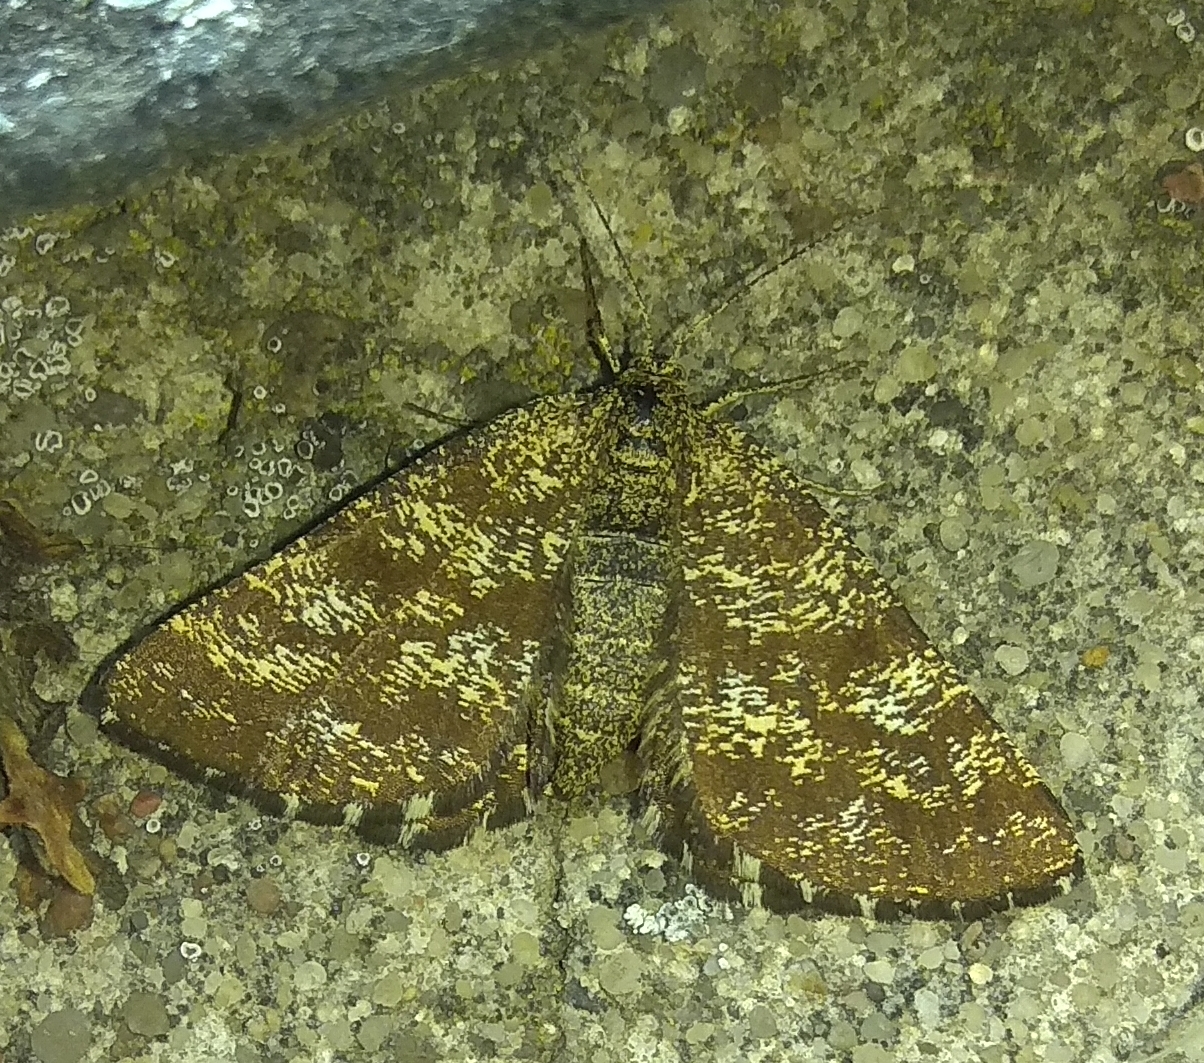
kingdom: Animalia
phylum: Arthropoda
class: Insecta
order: Lepidoptera
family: Geometridae
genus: Ematurga
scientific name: Ematurga atomaria
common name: Common heath
